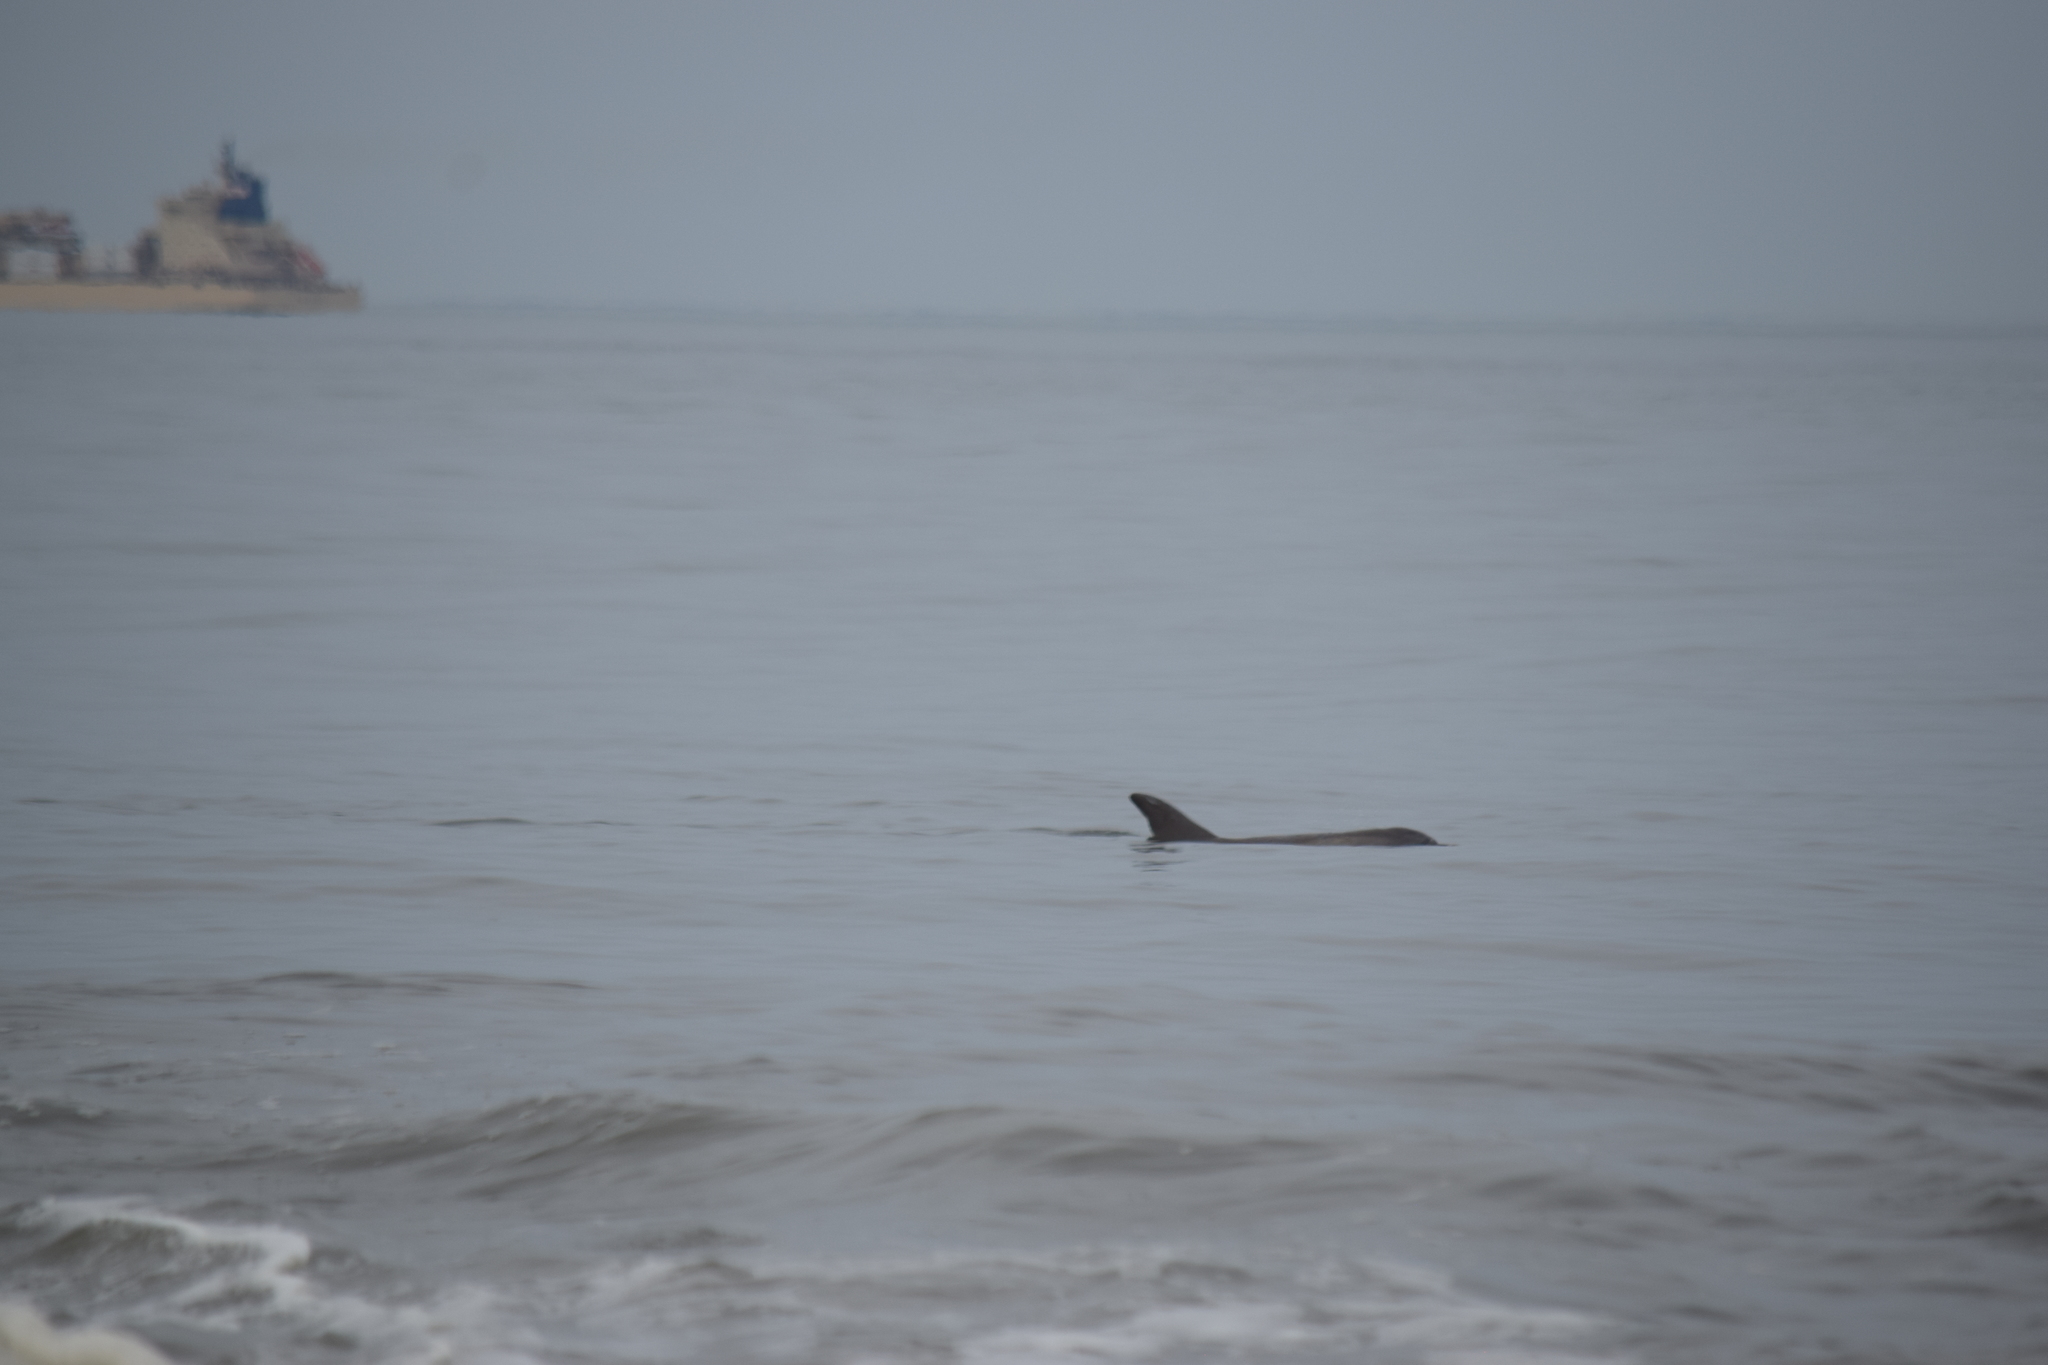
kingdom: Animalia
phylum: Chordata
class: Mammalia
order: Cetacea
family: Delphinidae
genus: Tursiops
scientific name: Tursiops truncatus
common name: Bottlenose dolphin
